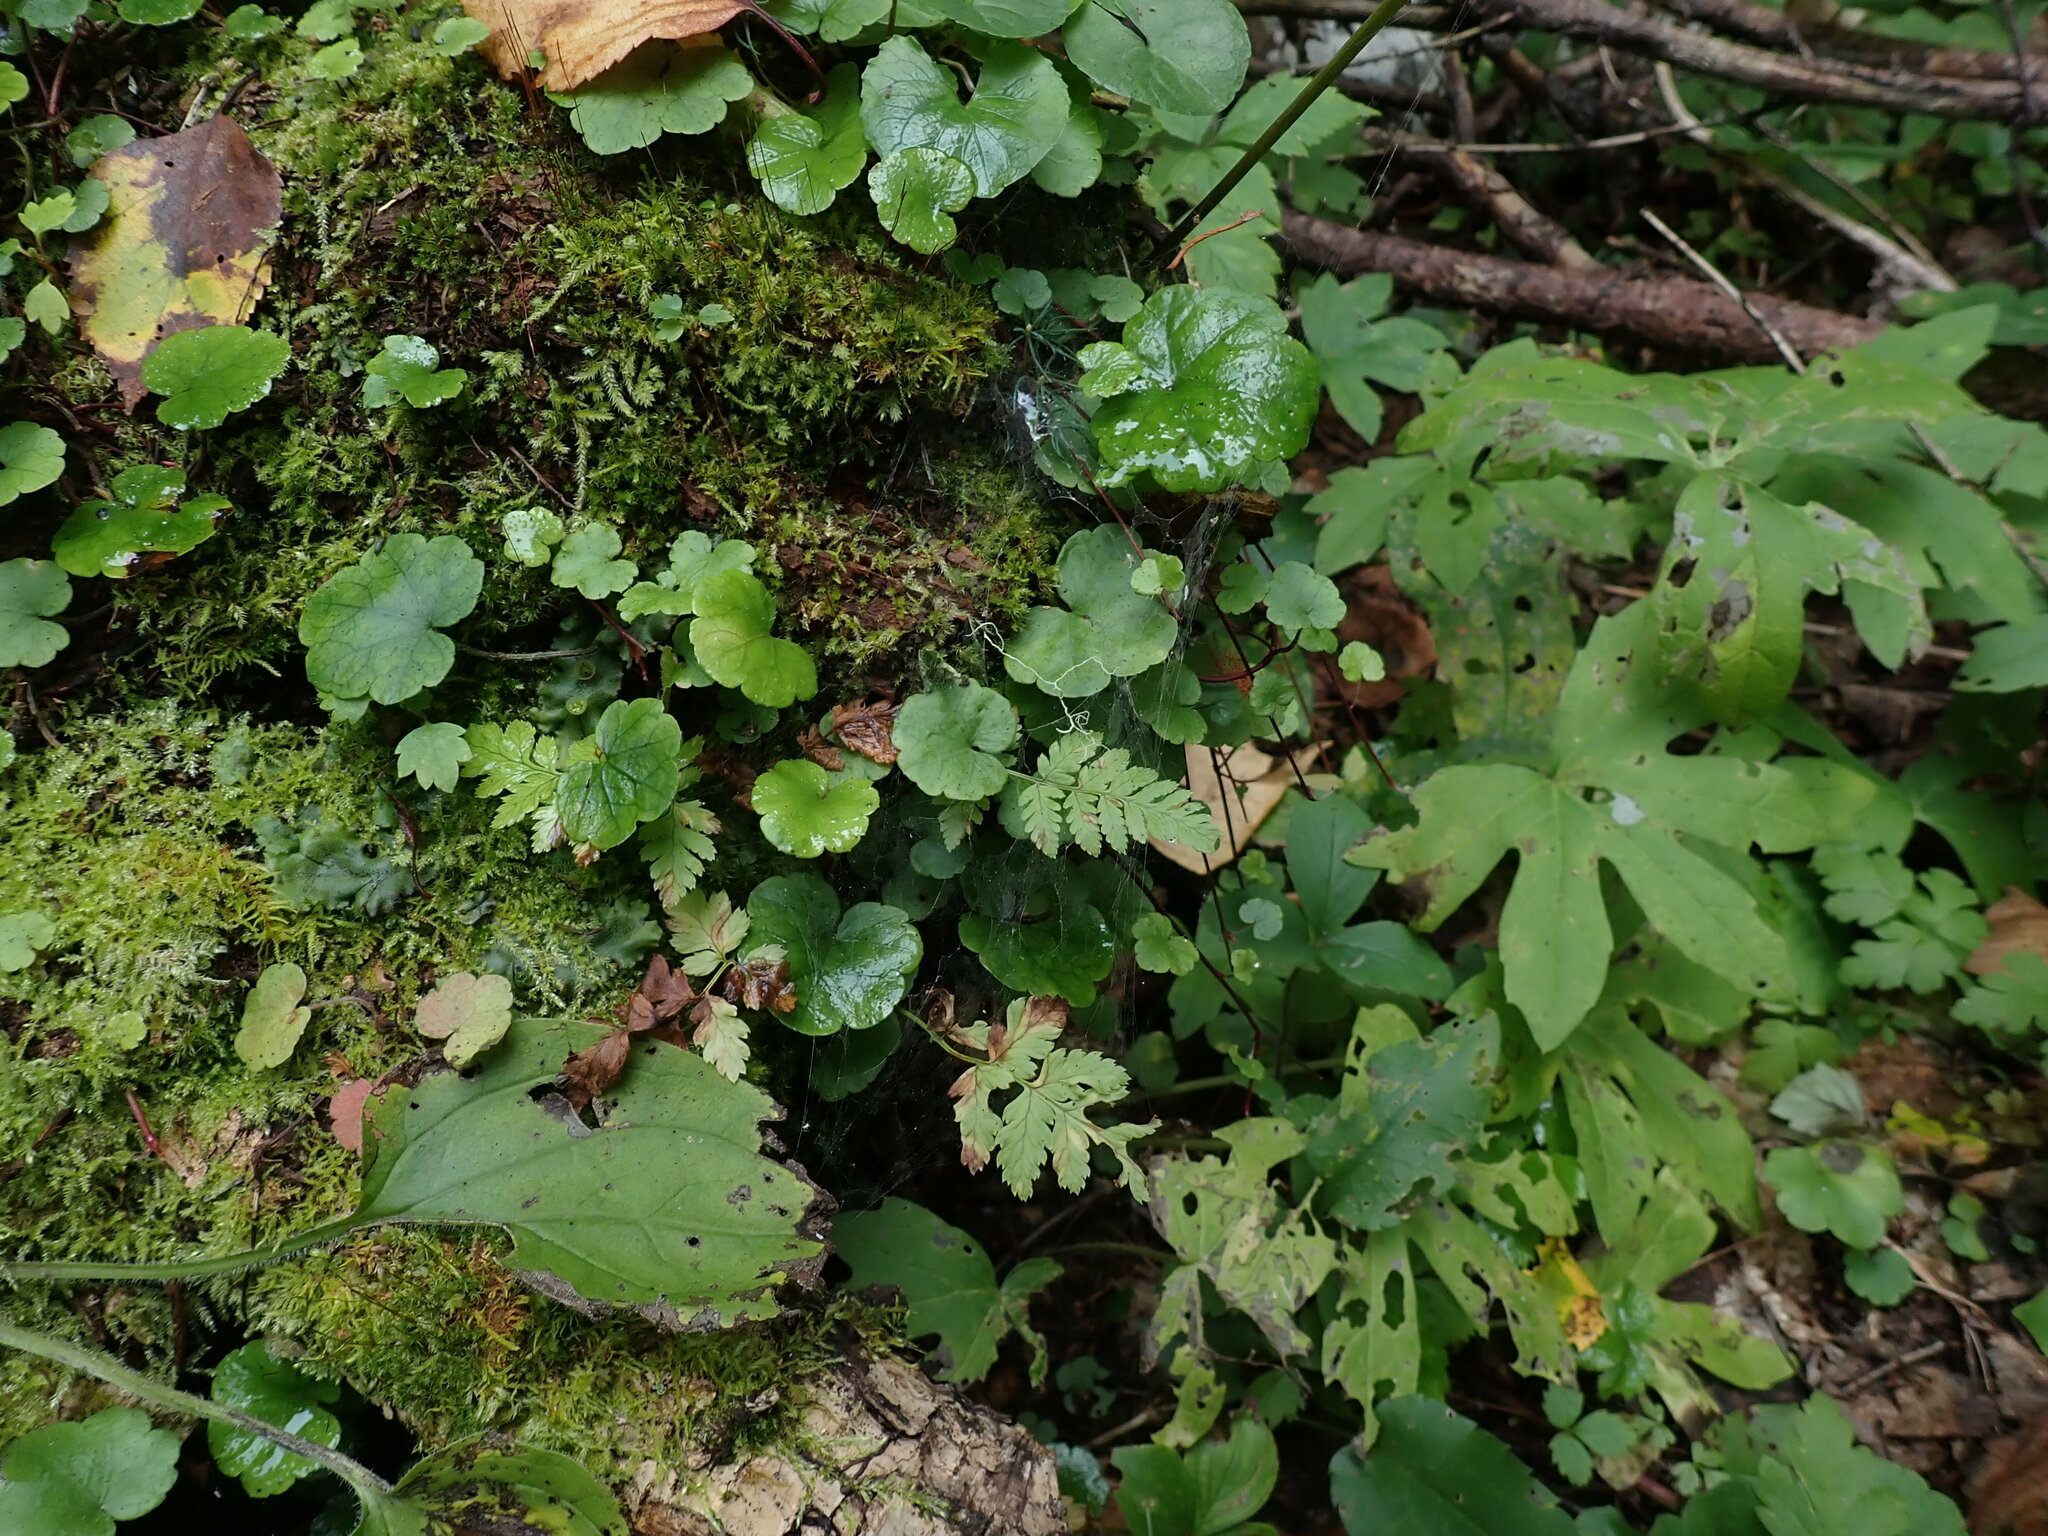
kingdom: Plantae
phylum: Marchantiophyta
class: Marchantiopsida
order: Marchantiales
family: Marchantiaceae
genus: Marchantia
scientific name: Marchantia polymorpha
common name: Common liverwort
